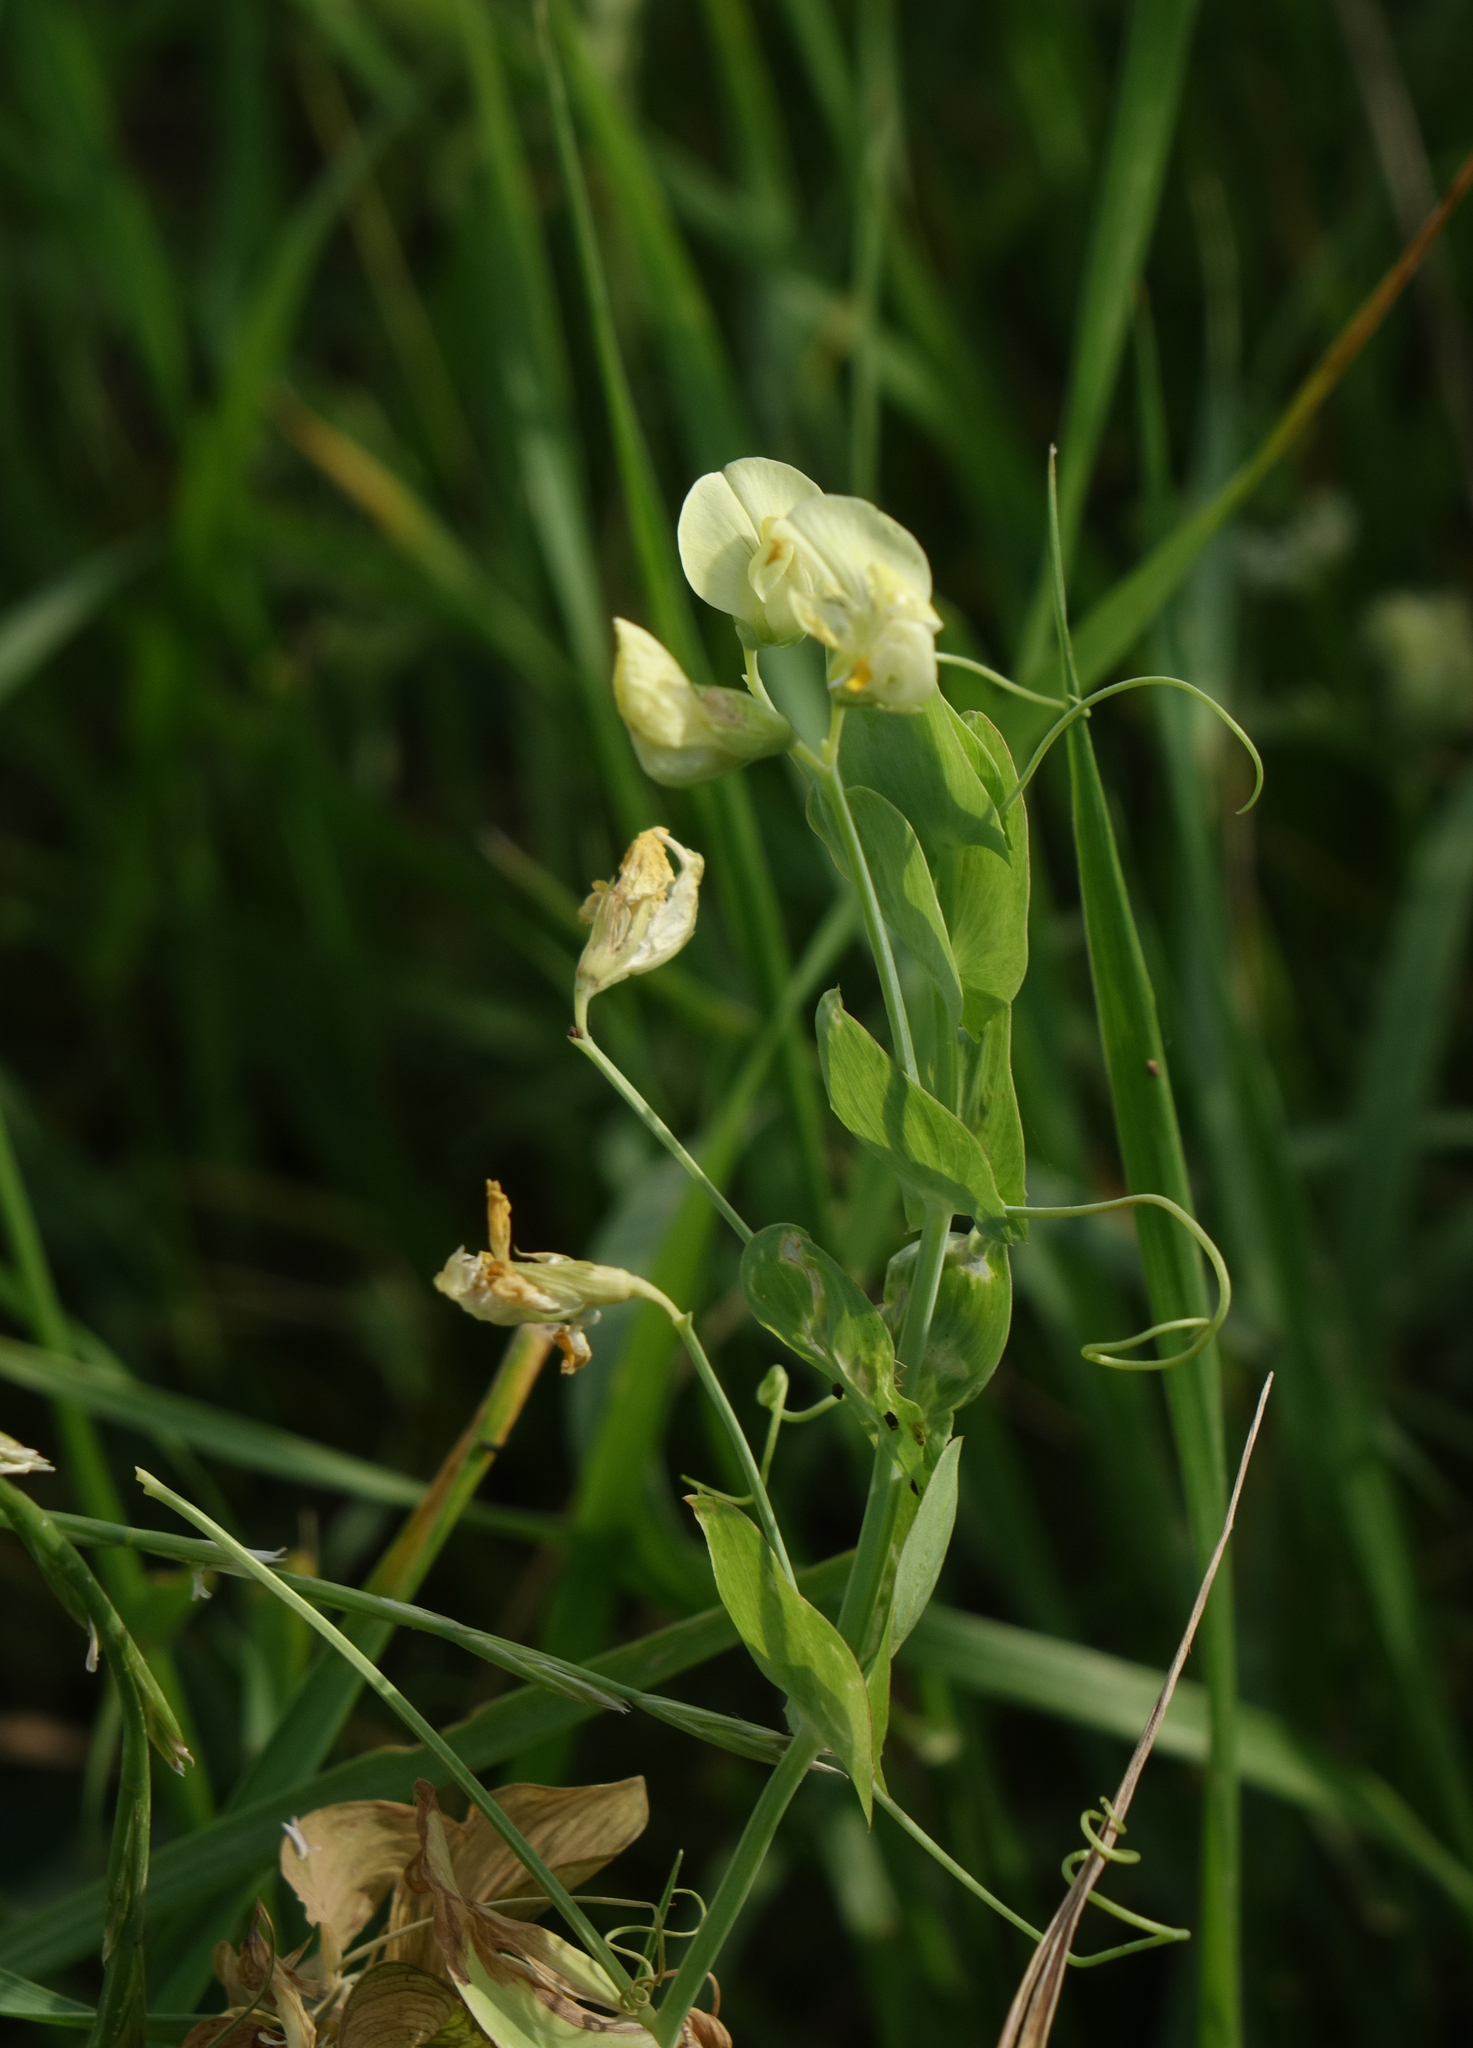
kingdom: Plantae
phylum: Tracheophyta
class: Magnoliopsida
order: Fabales
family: Fabaceae
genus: Lathyrus
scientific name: Lathyrus aphaca
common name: Yellow vetchling
